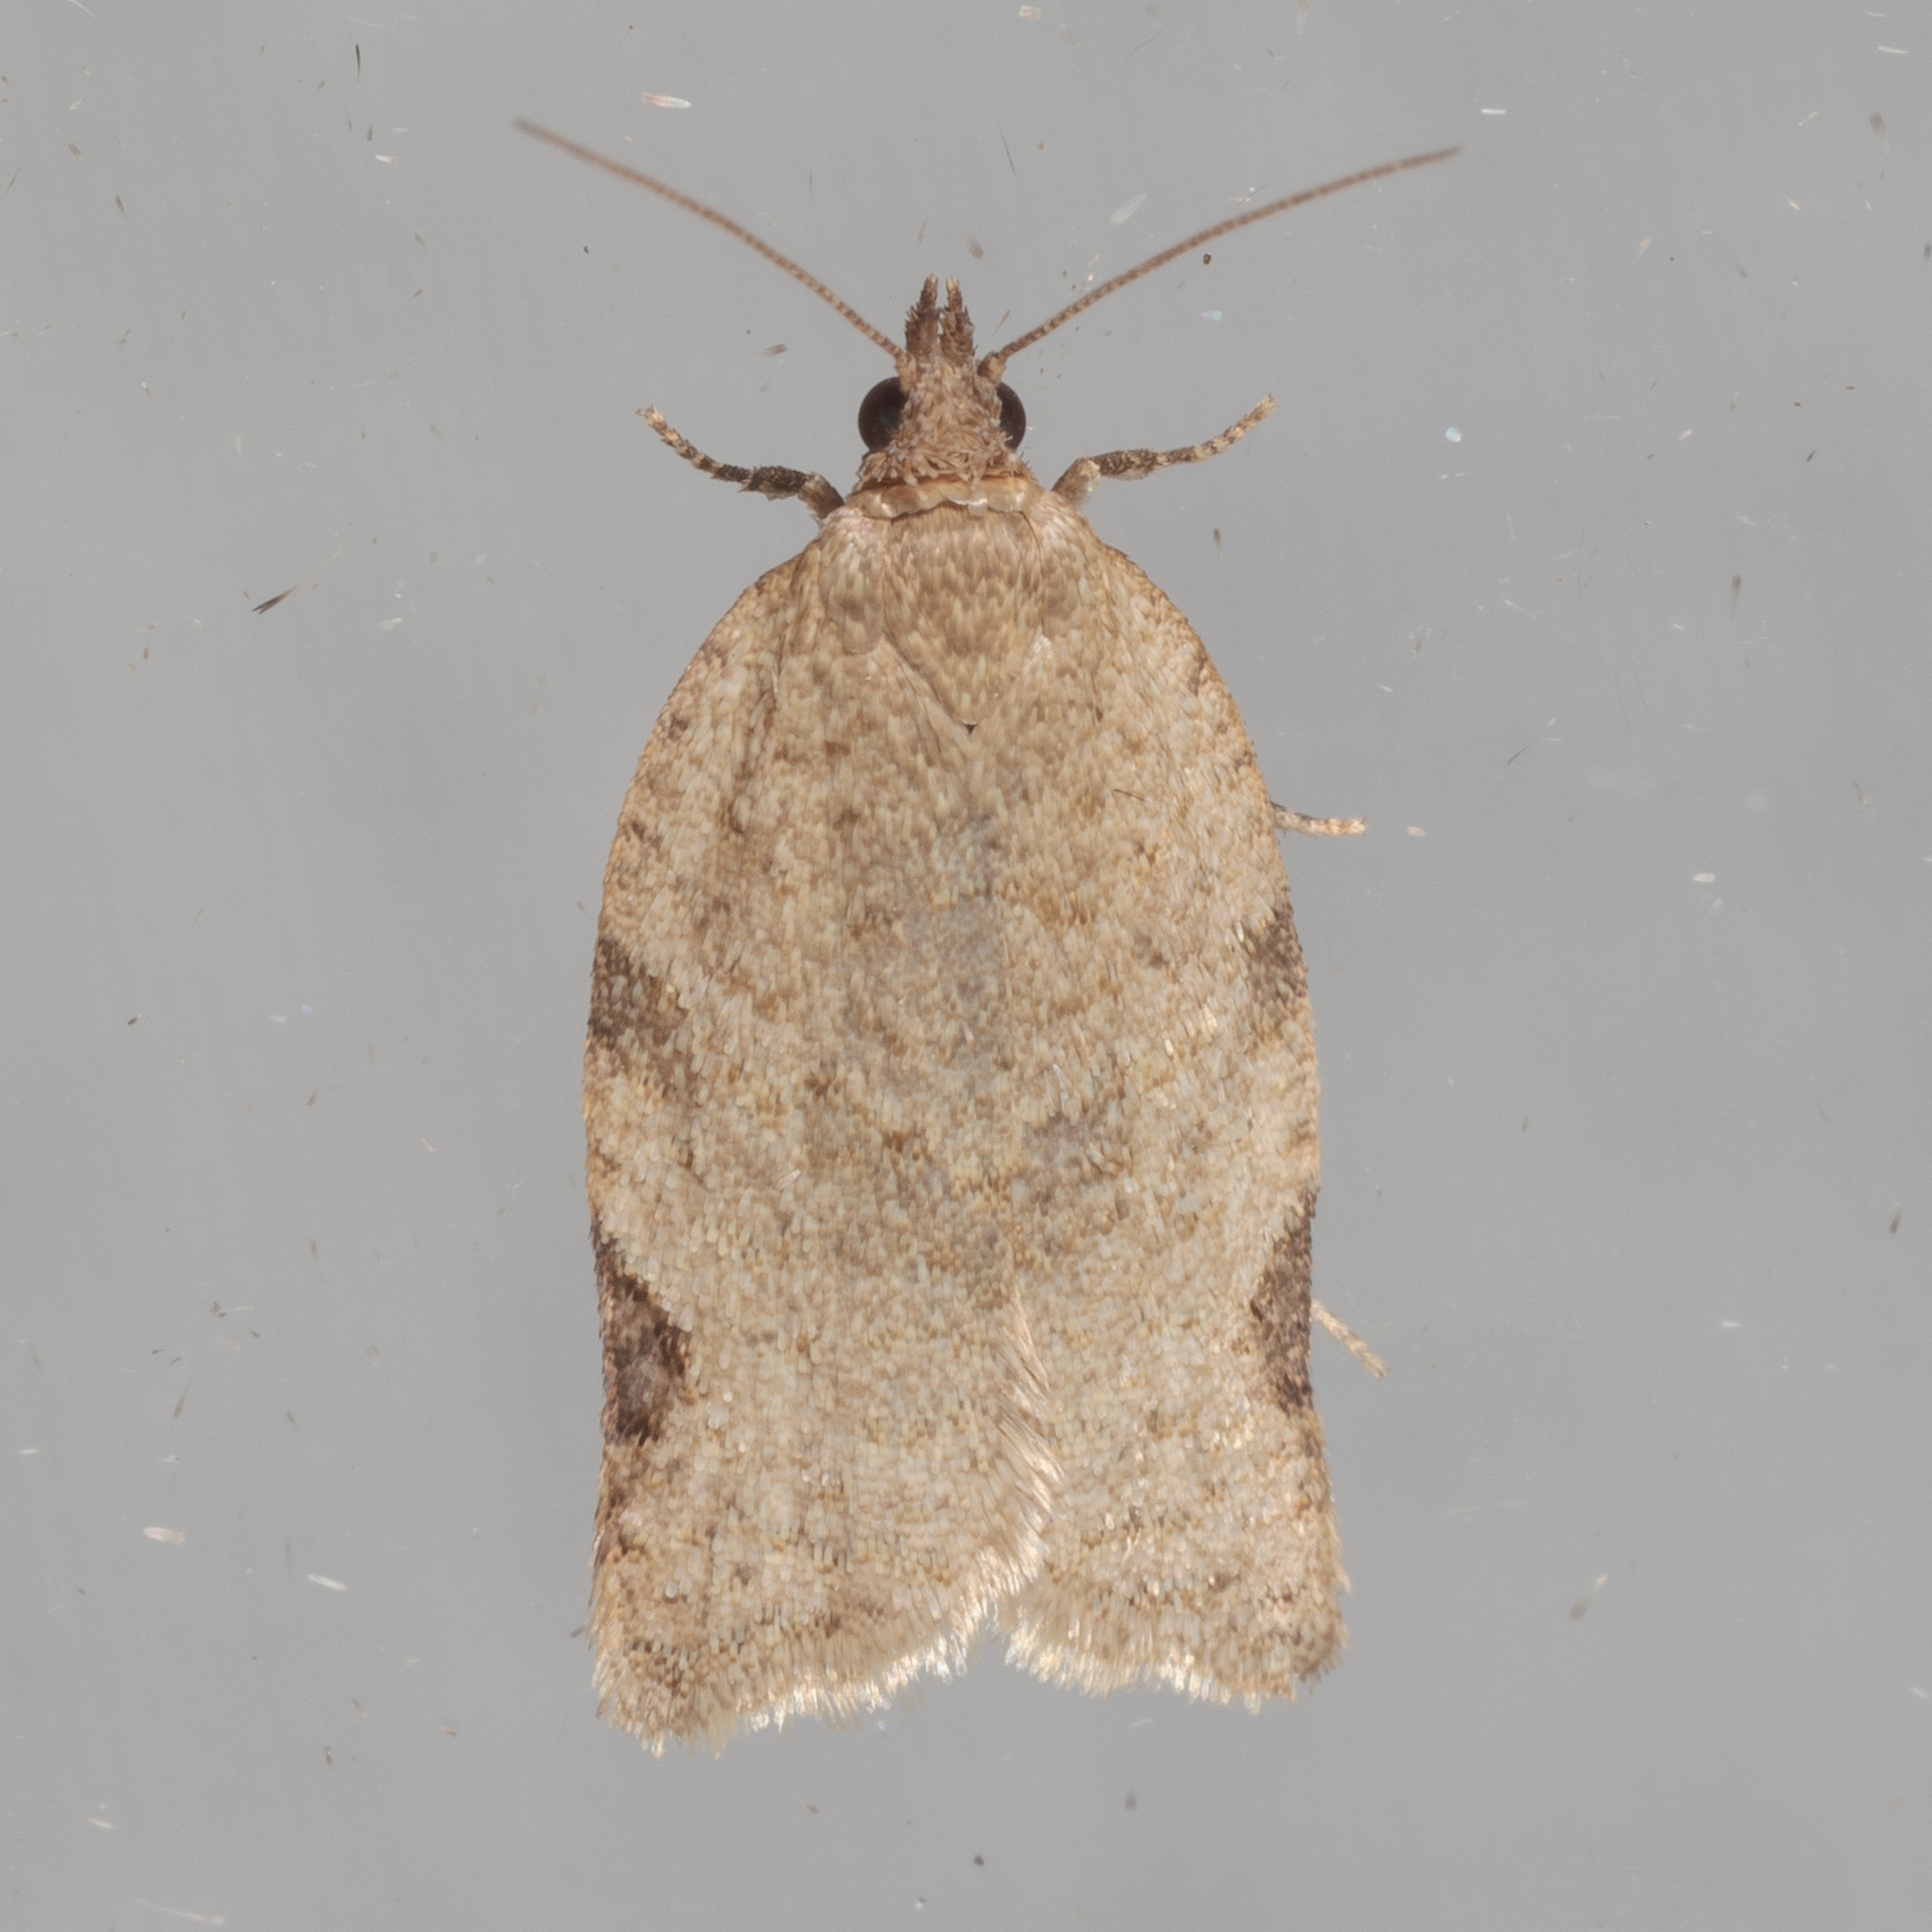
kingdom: Animalia
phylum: Arthropoda
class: Insecta
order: Lepidoptera
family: Tortricidae
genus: Clepsis
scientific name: Clepsis virescana
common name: Greenish apple moth
